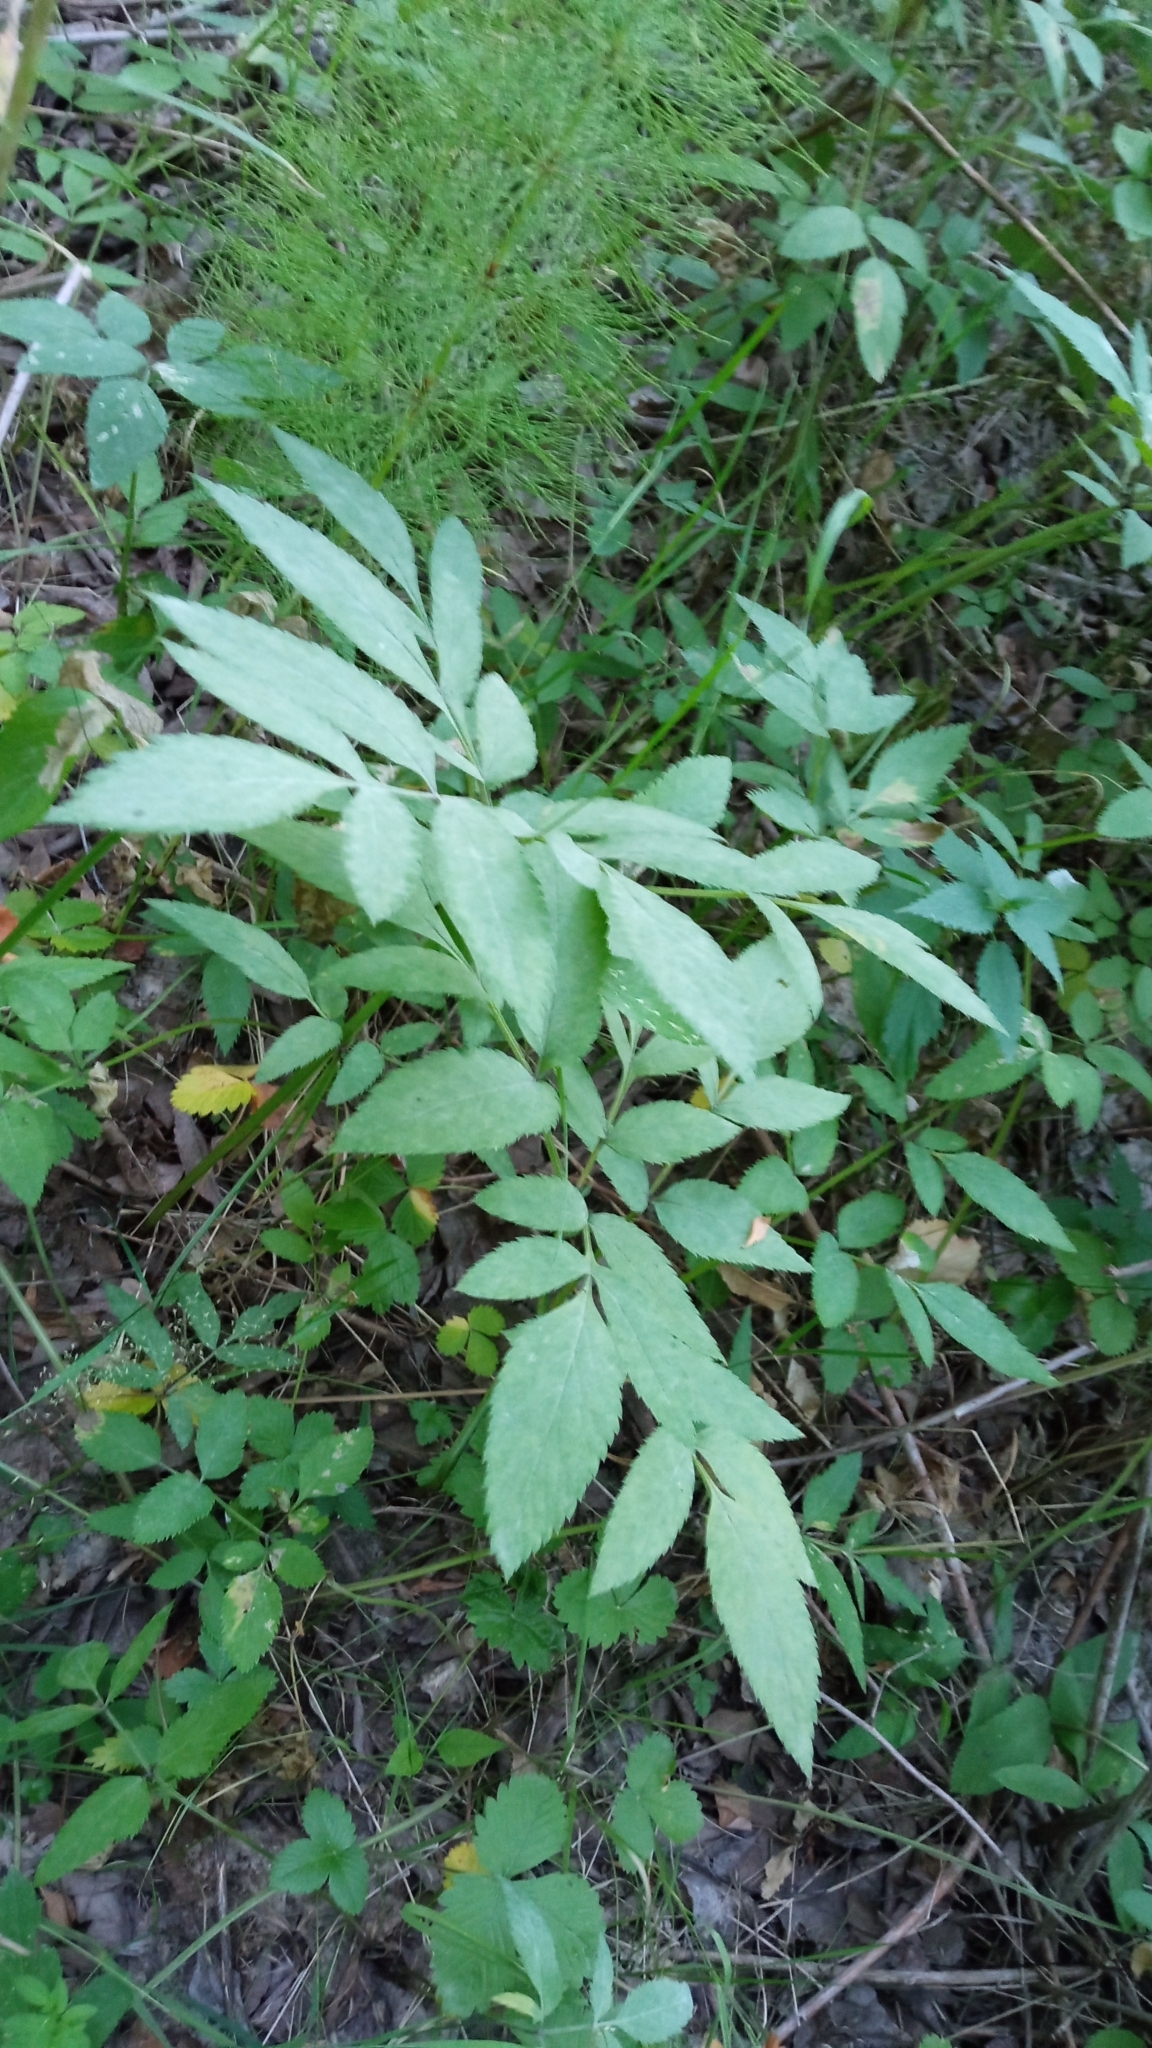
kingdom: Plantae
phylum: Tracheophyta
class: Magnoliopsida
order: Apiales
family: Apiaceae
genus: Angelica
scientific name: Angelica sylvestris
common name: Wild angelica
